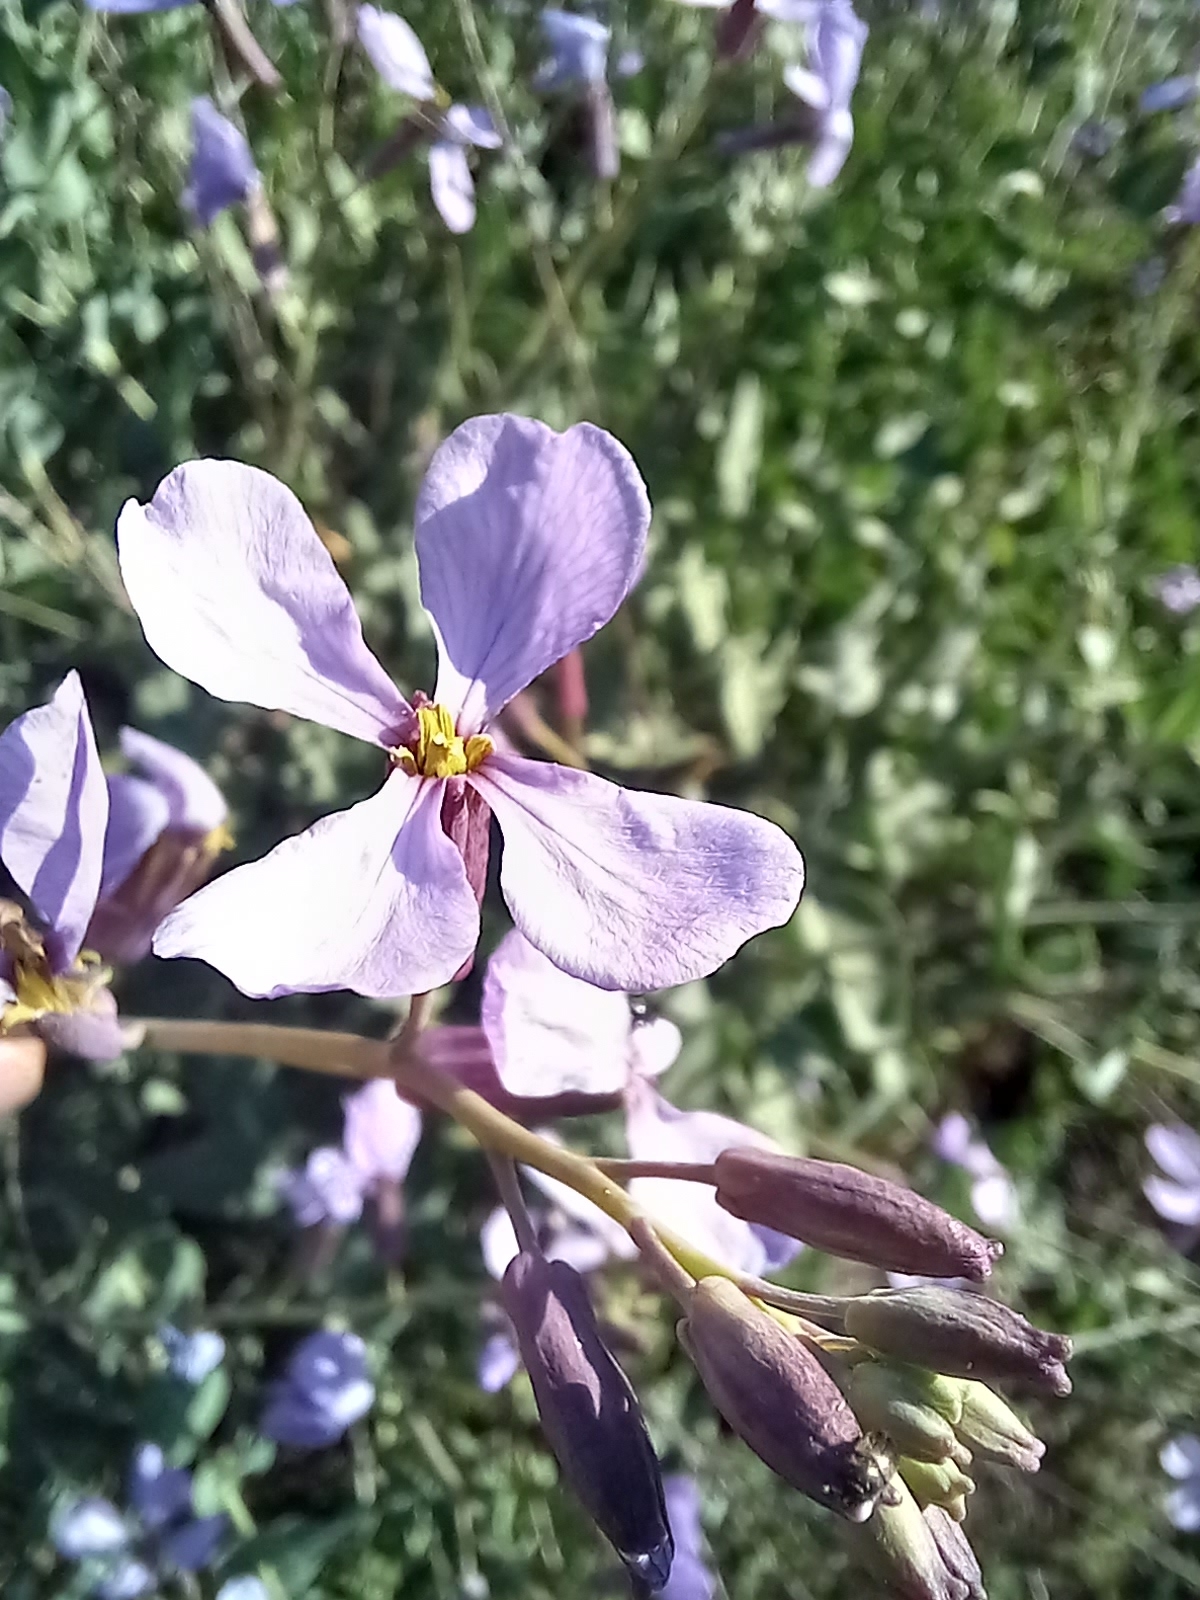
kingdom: Plantae
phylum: Tracheophyta
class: Magnoliopsida
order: Brassicales
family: Brassicaceae
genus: Moricandia
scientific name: Moricandia arvensis
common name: Purple mistress
